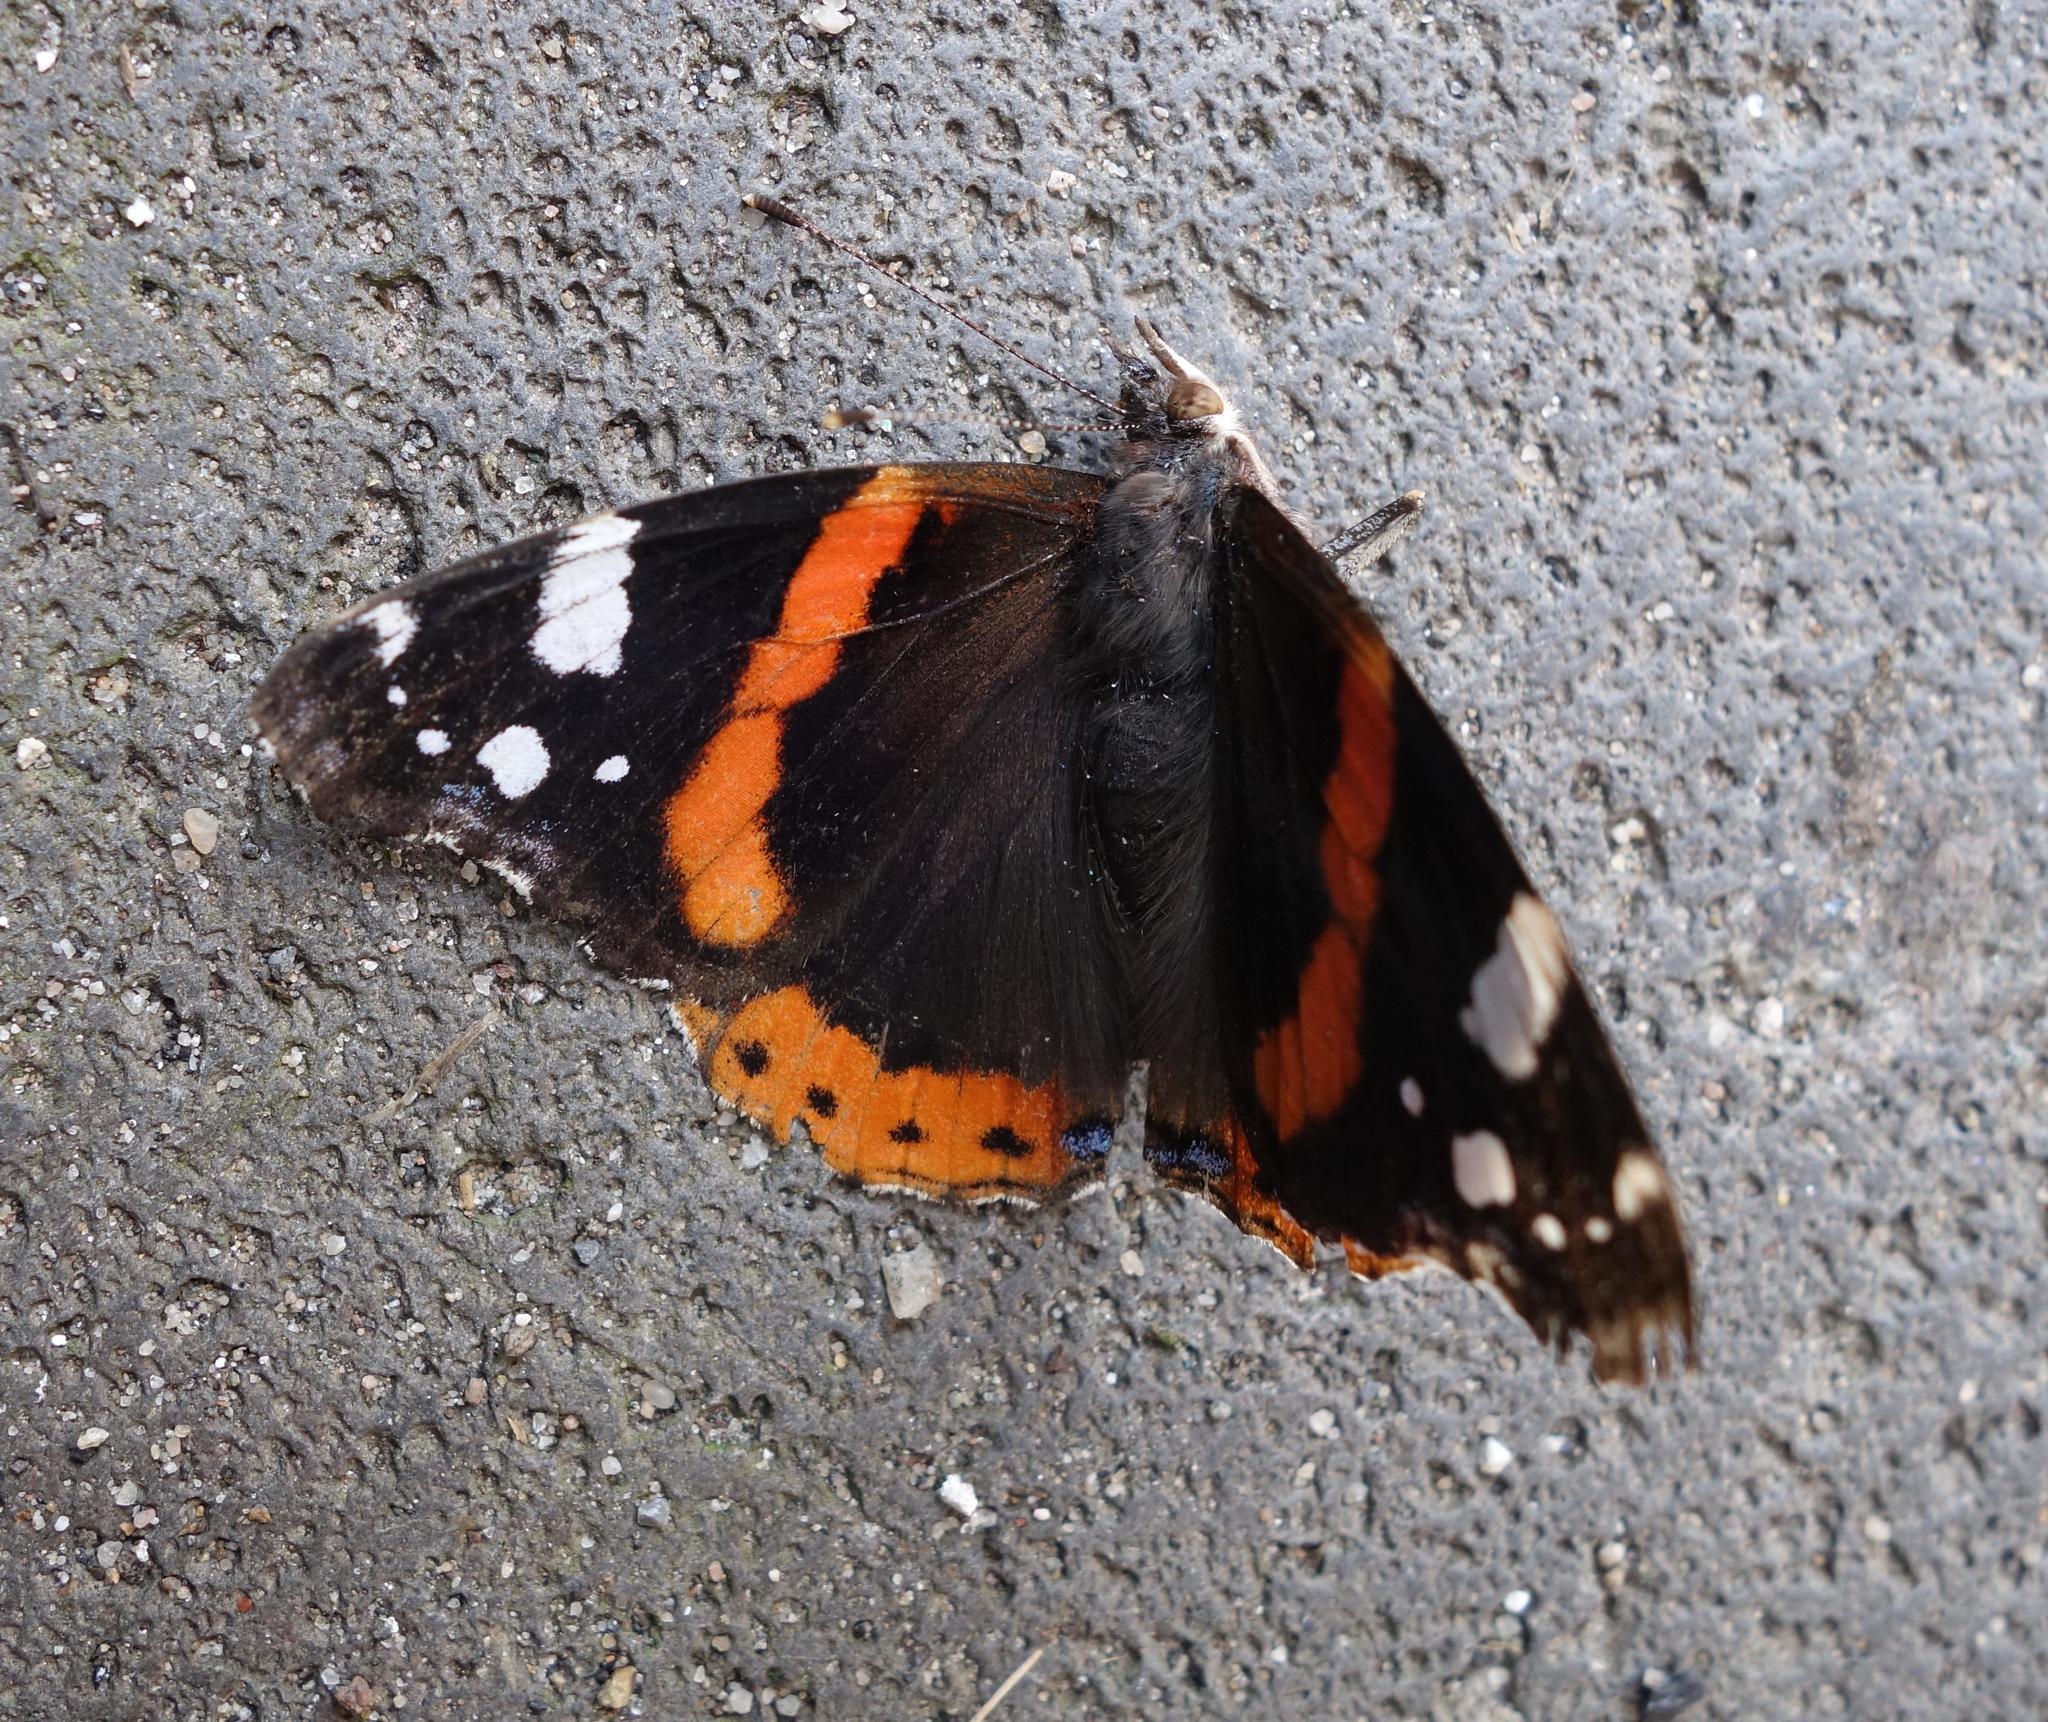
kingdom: Animalia
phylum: Arthropoda
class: Insecta
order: Lepidoptera
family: Nymphalidae
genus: Vanessa
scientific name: Vanessa atalanta
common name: Red admiral
